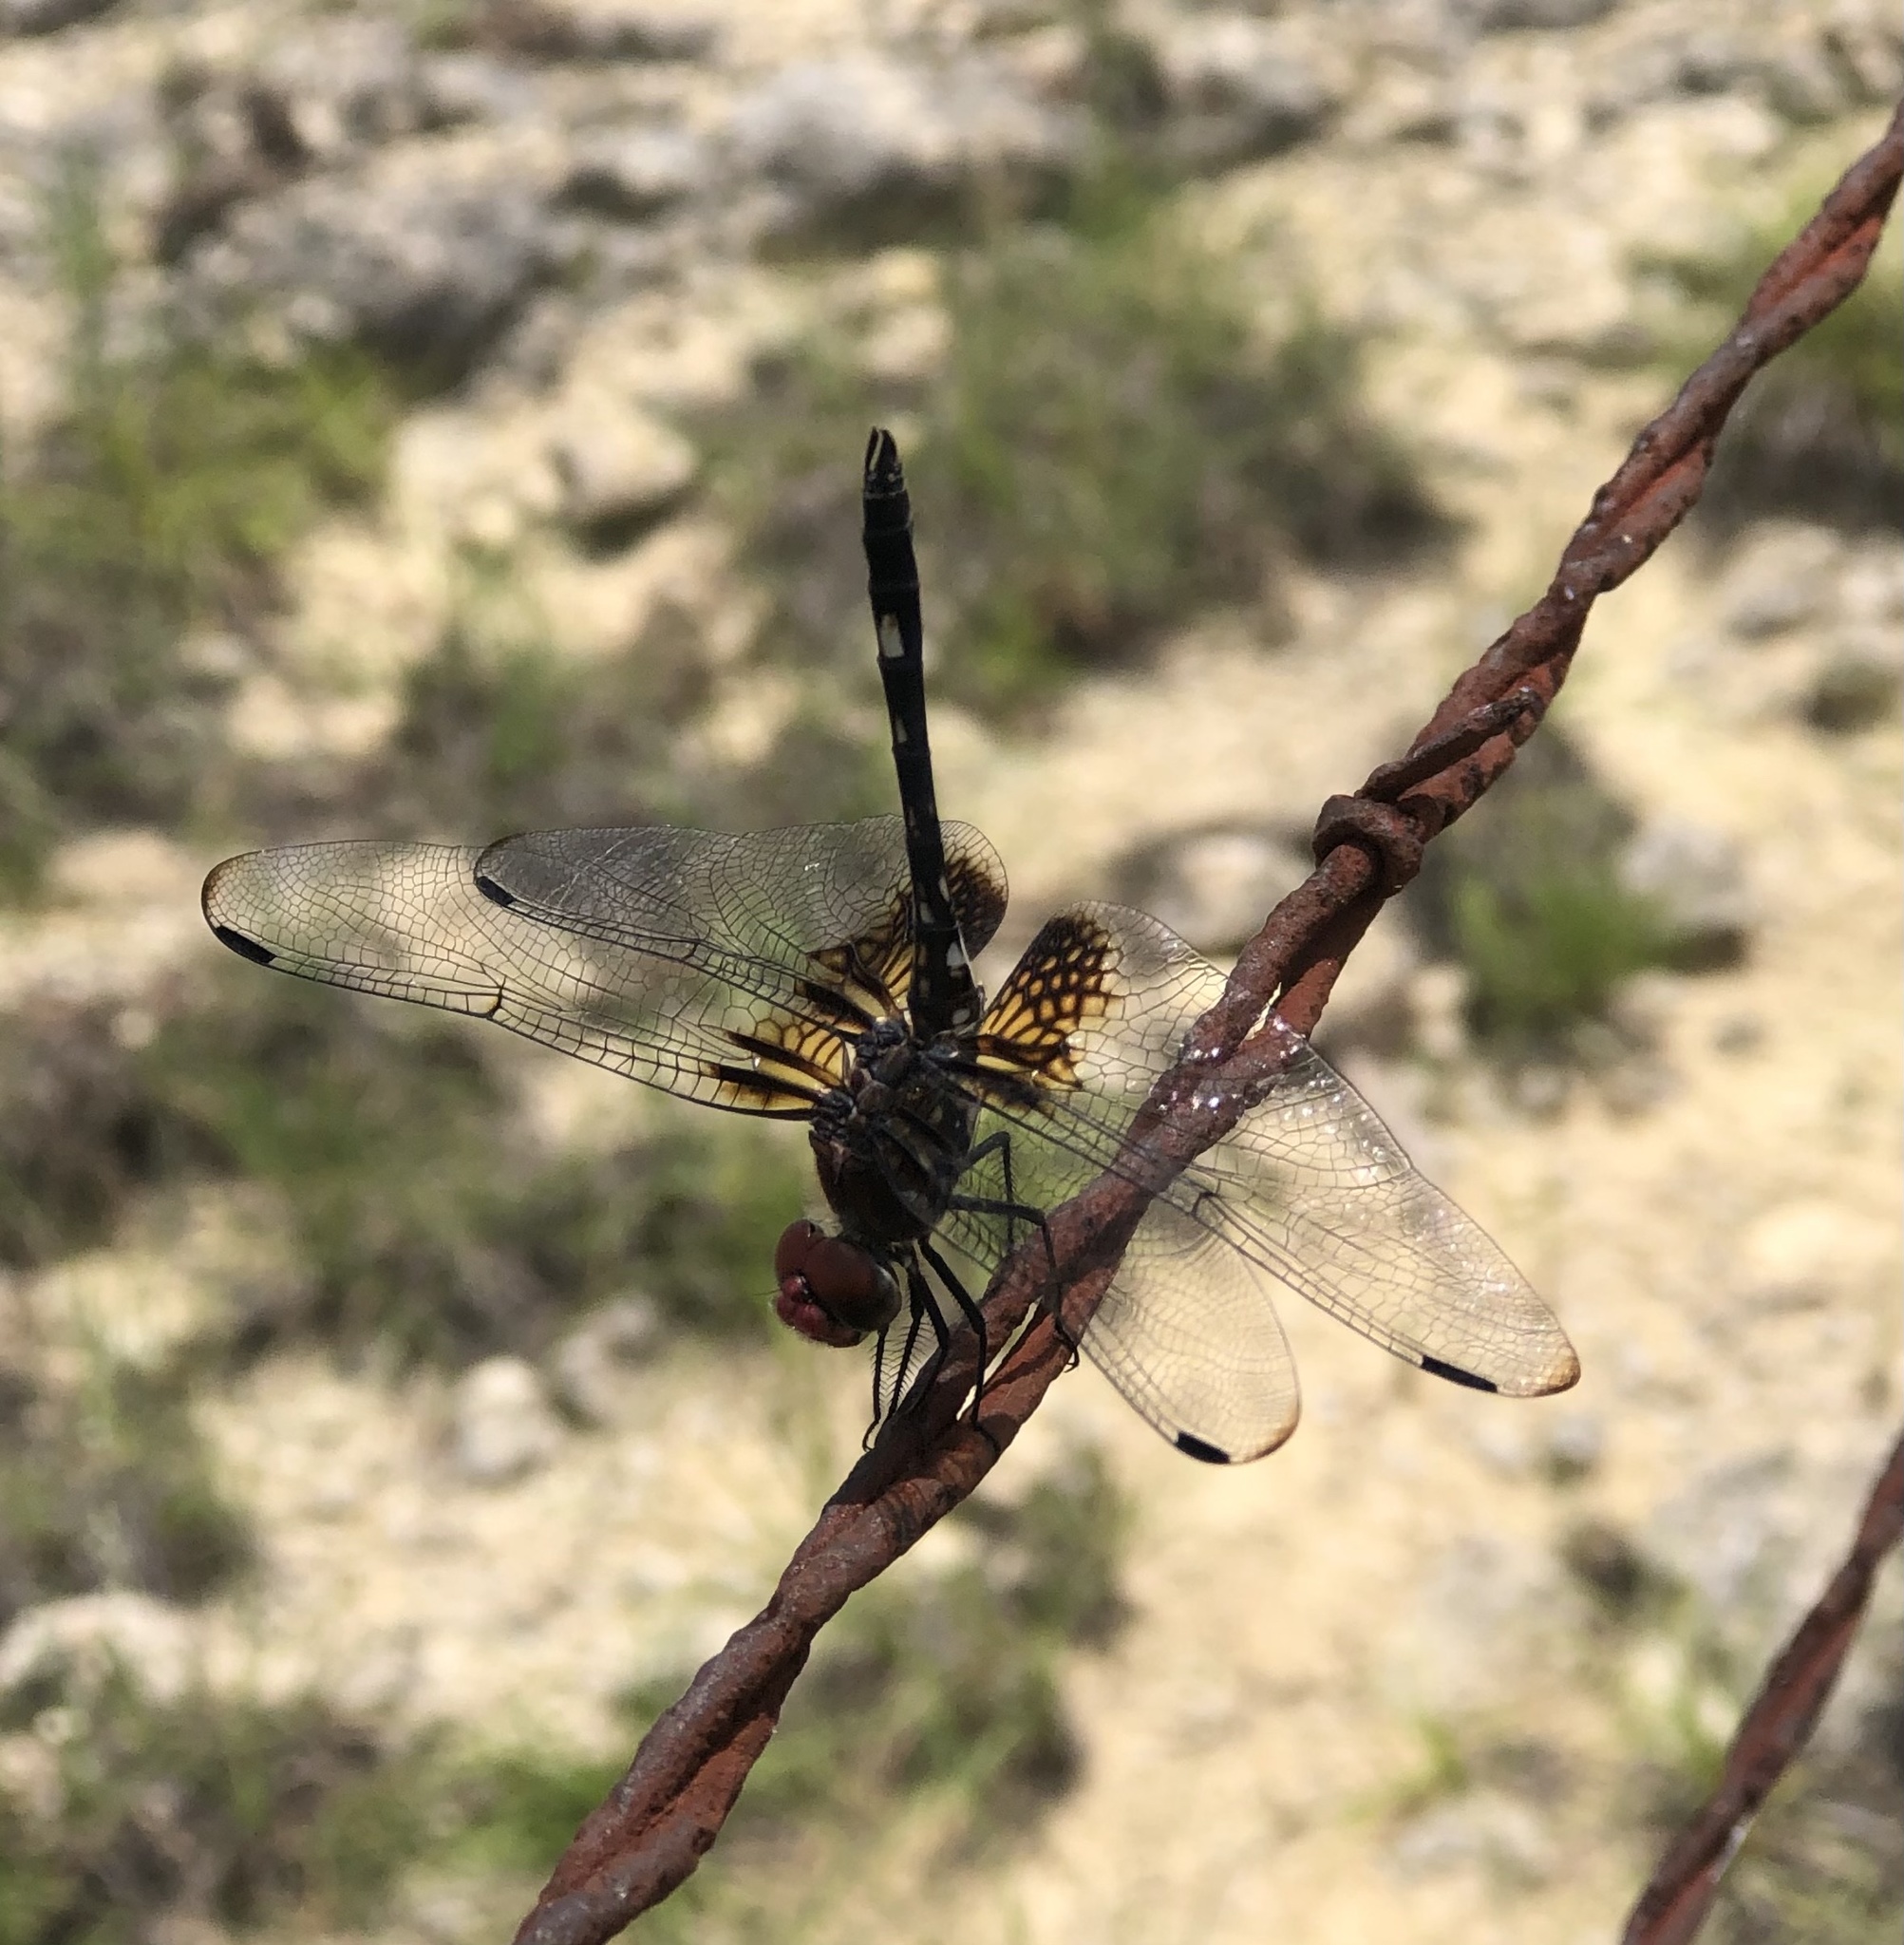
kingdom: Animalia
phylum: Arthropoda
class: Insecta
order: Odonata
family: Libellulidae
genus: Dythemis
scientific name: Dythemis fugax
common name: Checkered setwing
